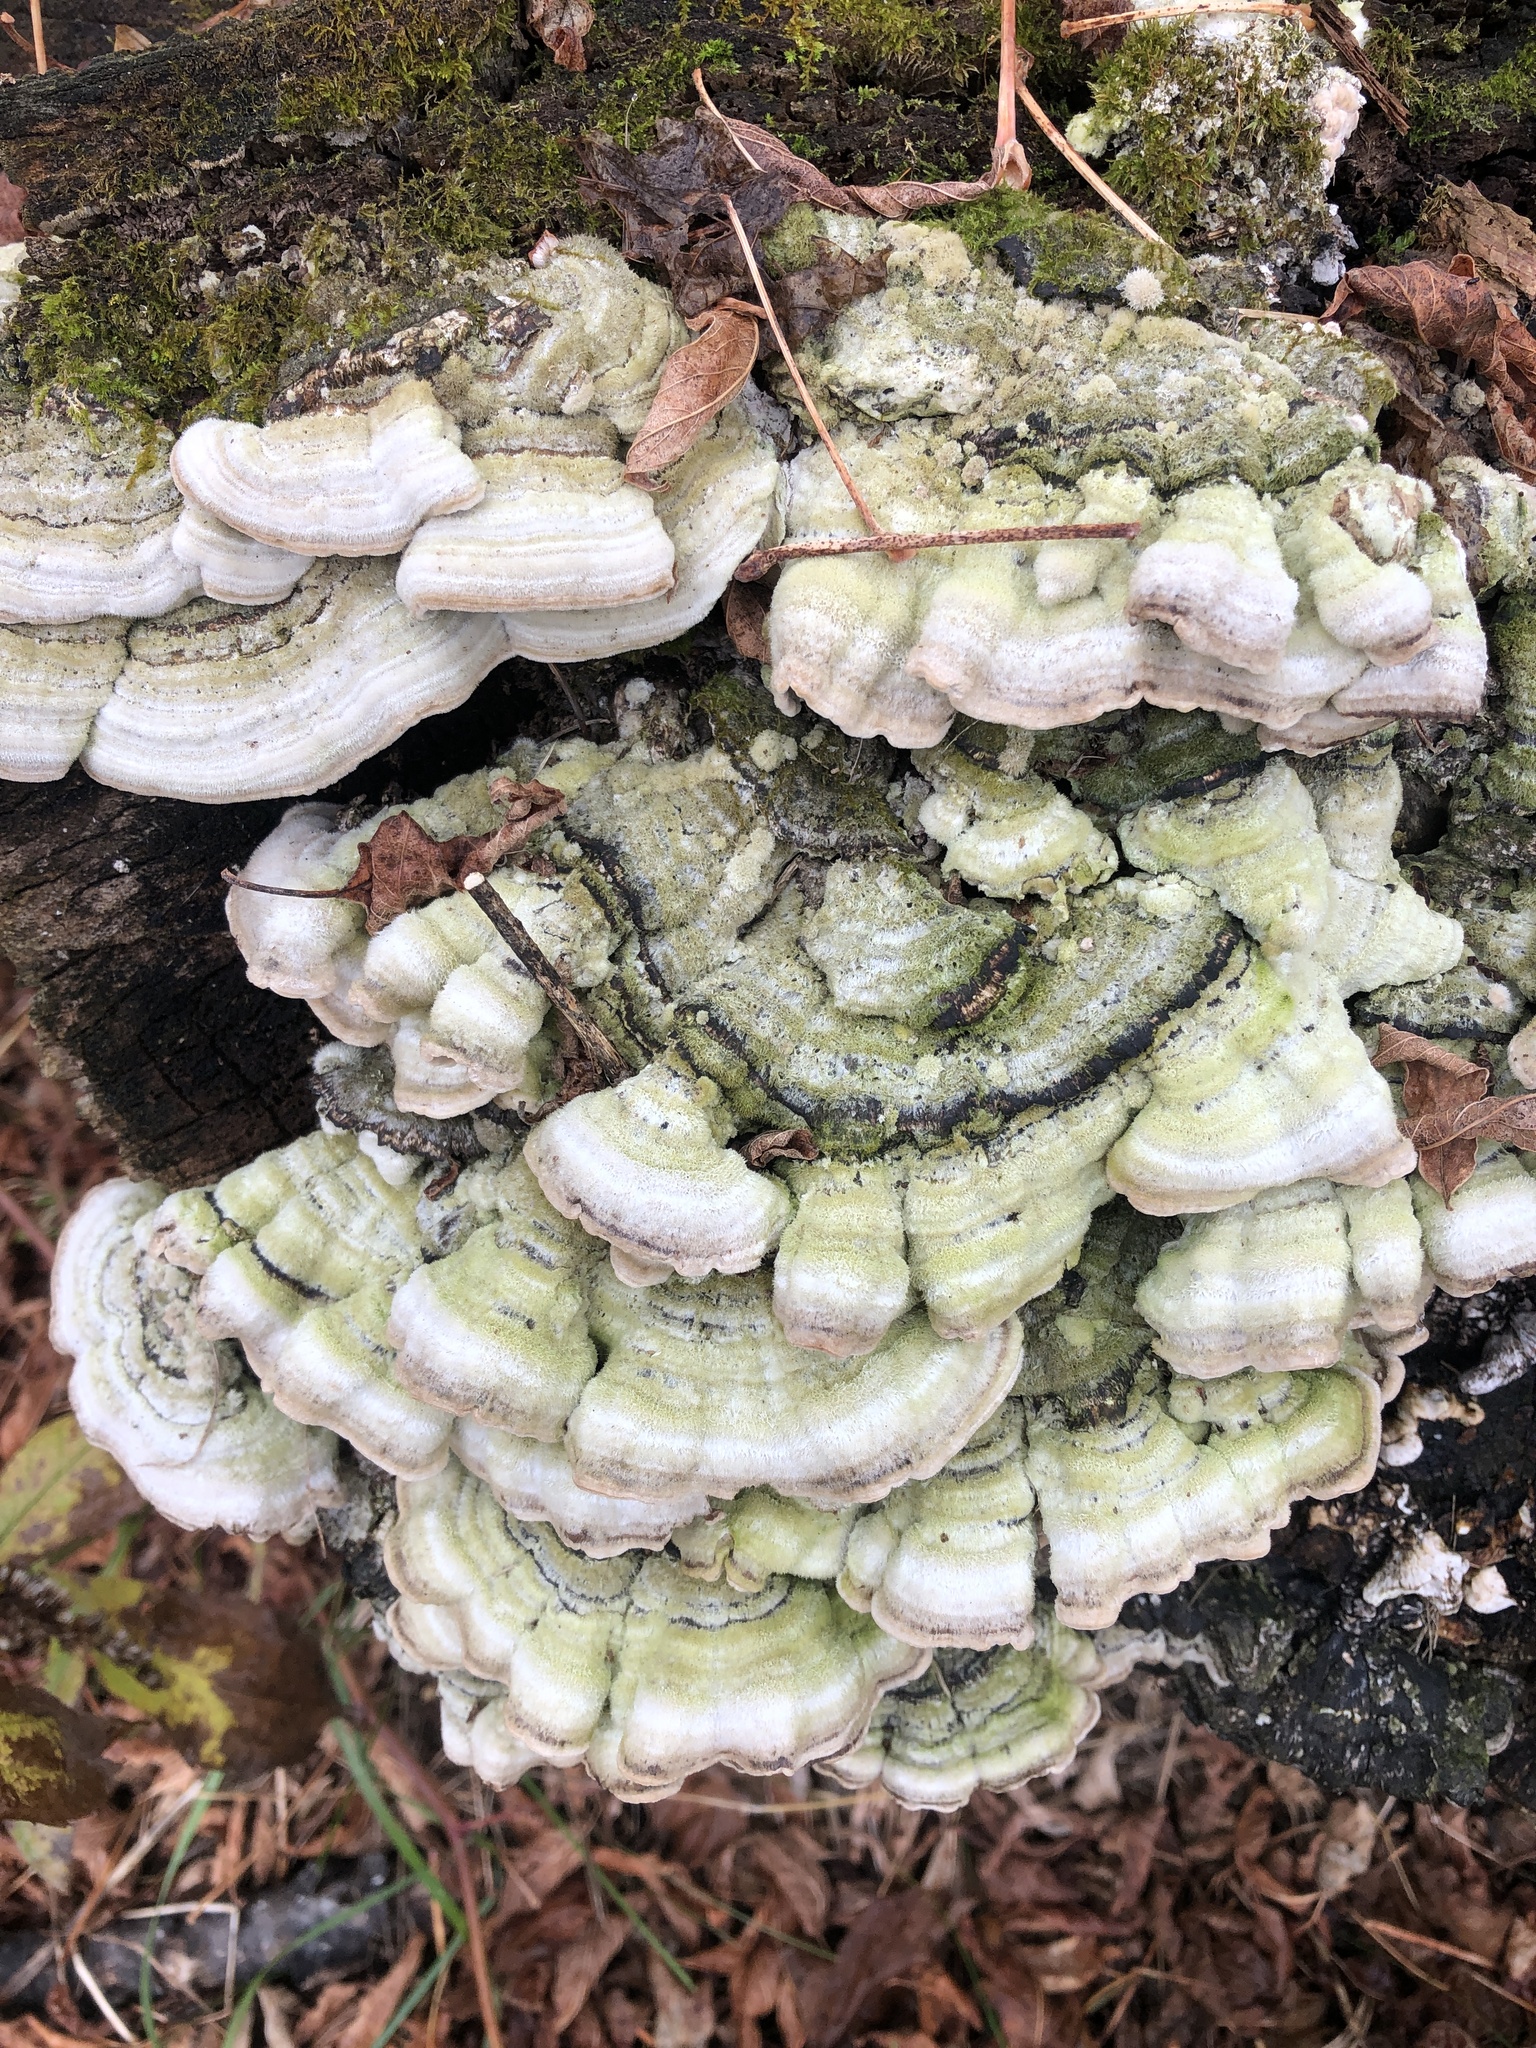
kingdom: Fungi
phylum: Basidiomycota
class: Agaricomycetes
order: Polyporales
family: Cerrenaceae
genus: Cerrena
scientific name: Cerrena unicolor
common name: Mossy maze polypore
